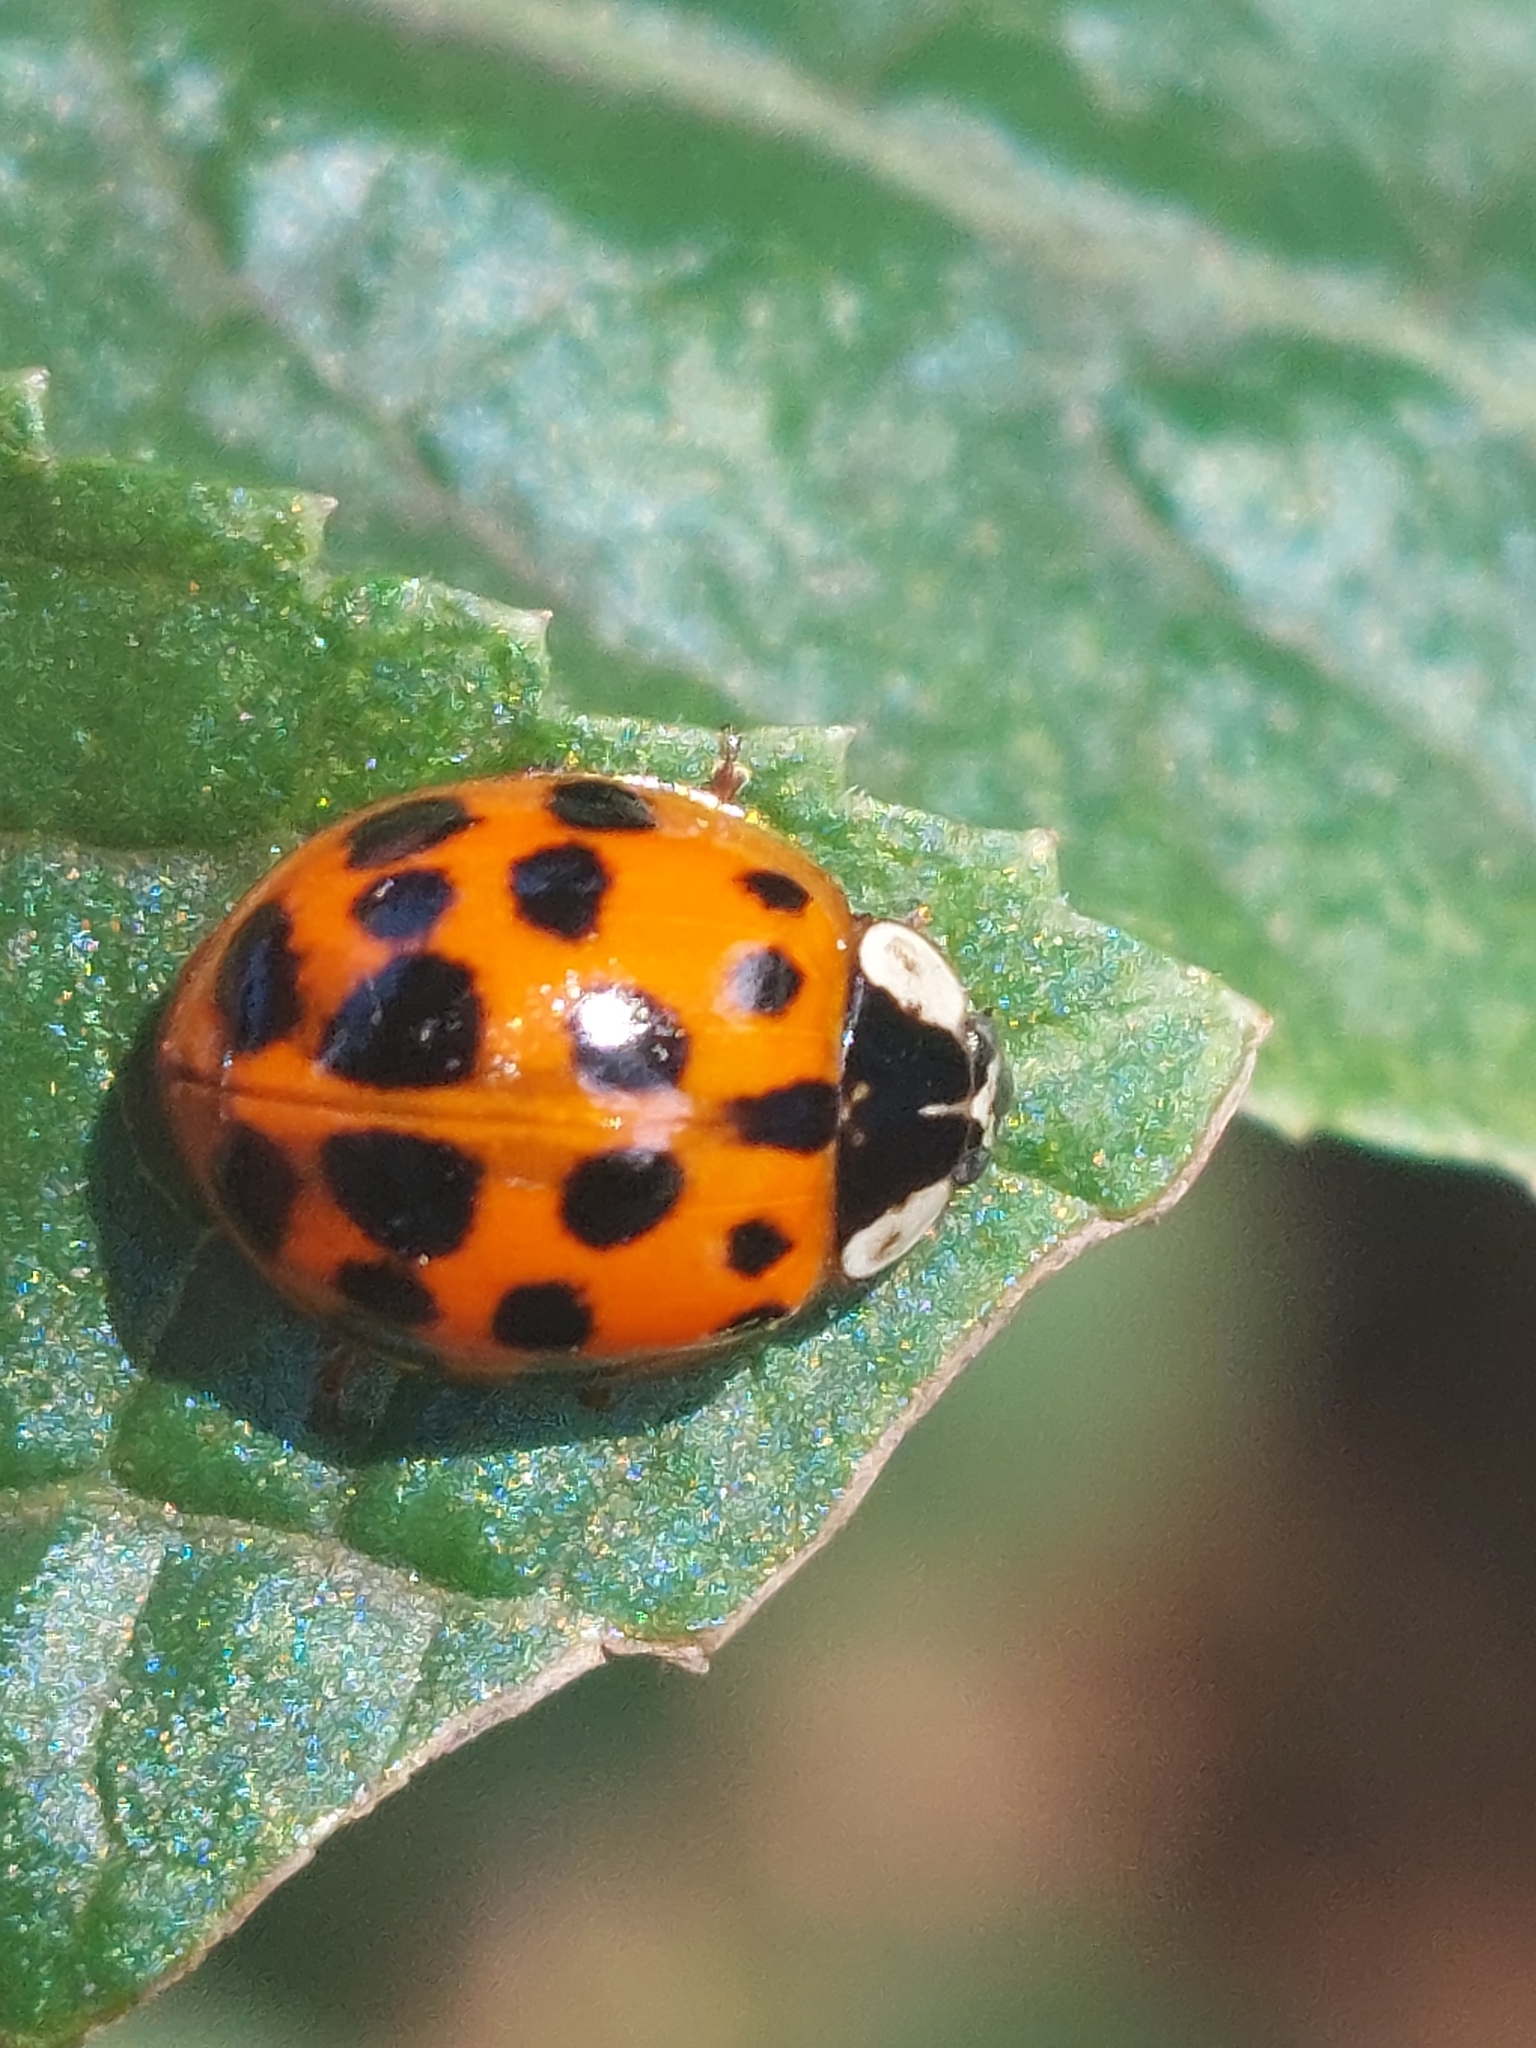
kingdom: Animalia
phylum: Arthropoda
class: Insecta
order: Coleoptera
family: Coccinellidae
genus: Harmonia
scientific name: Harmonia axyridis
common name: Harlequin ladybird
